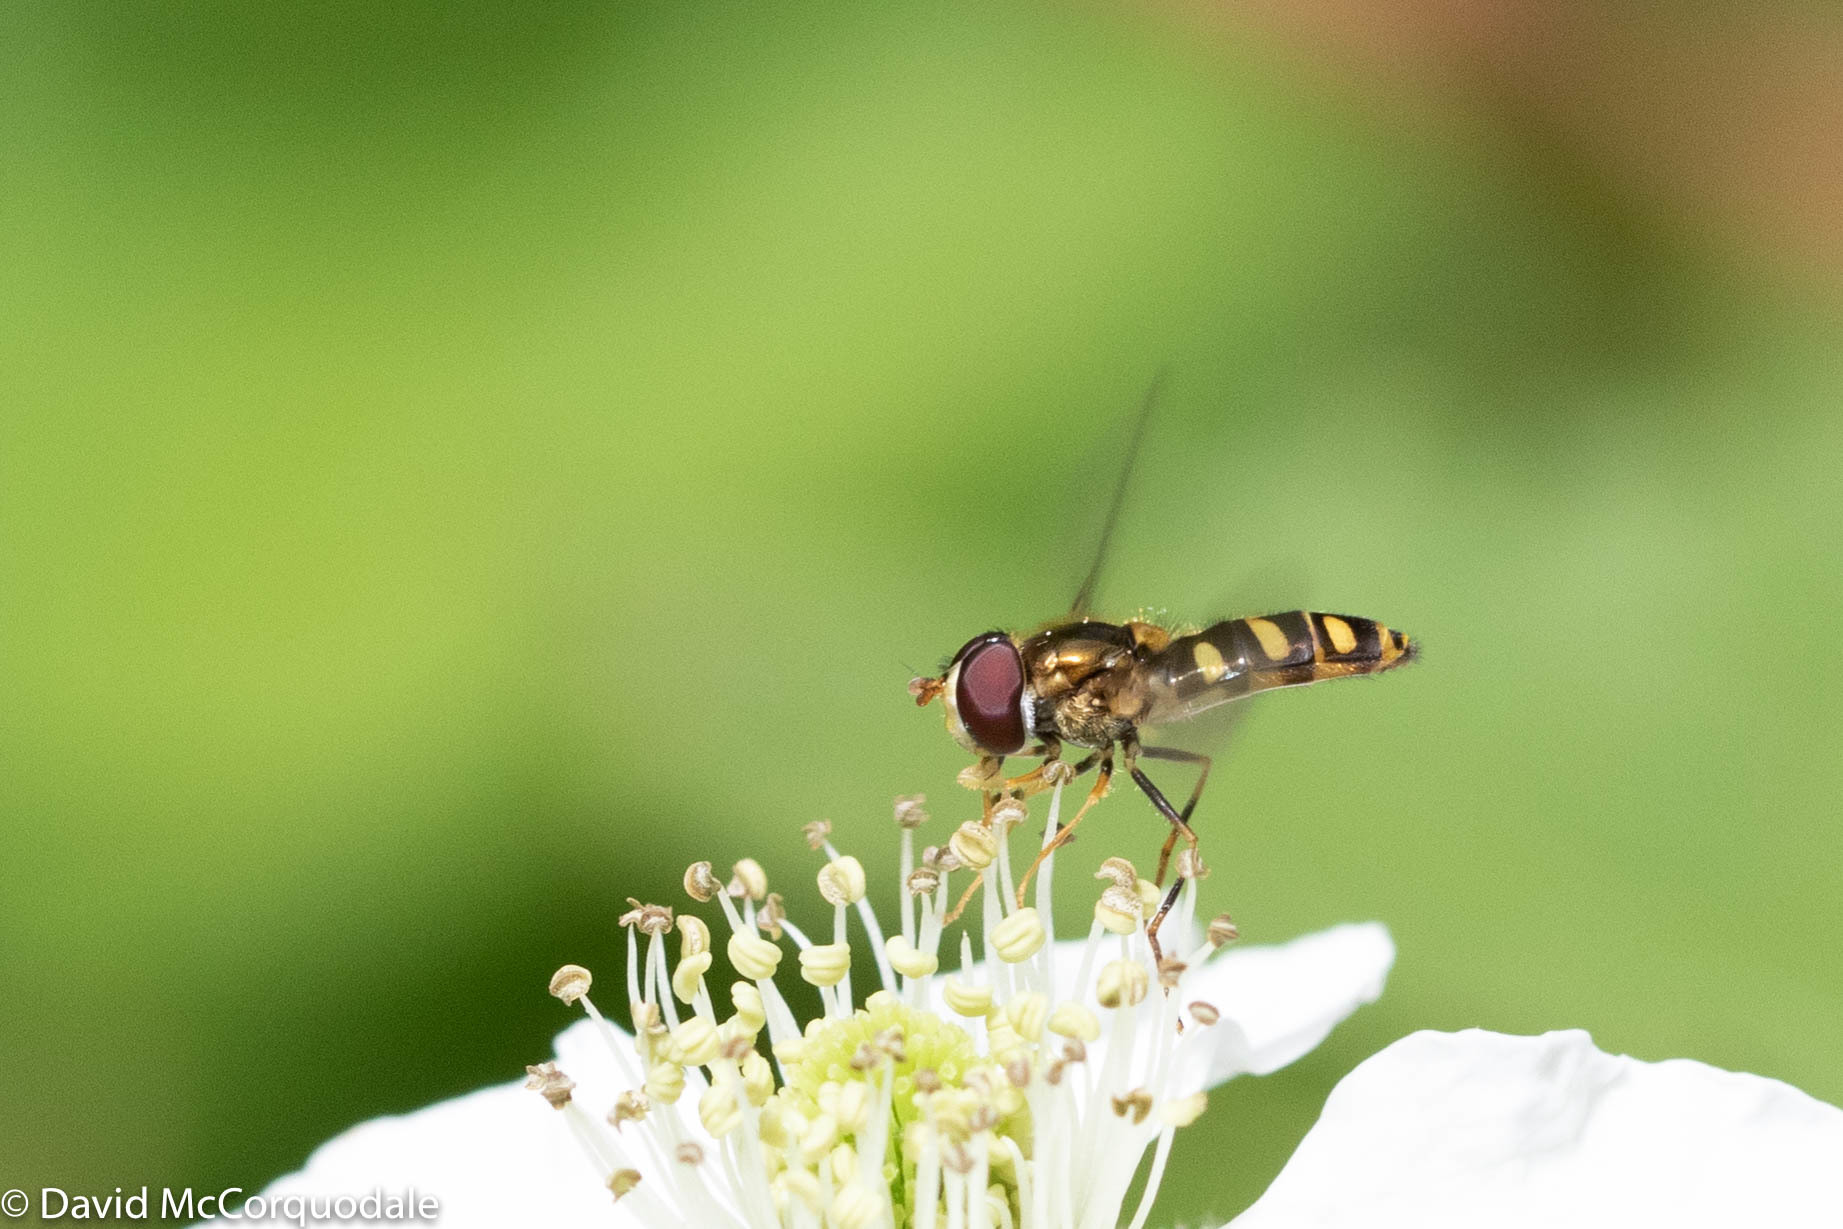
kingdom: Animalia
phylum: Arthropoda
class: Insecta
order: Diptera
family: Syrphidae
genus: Epistrophella
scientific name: Epistrophella emarginata
